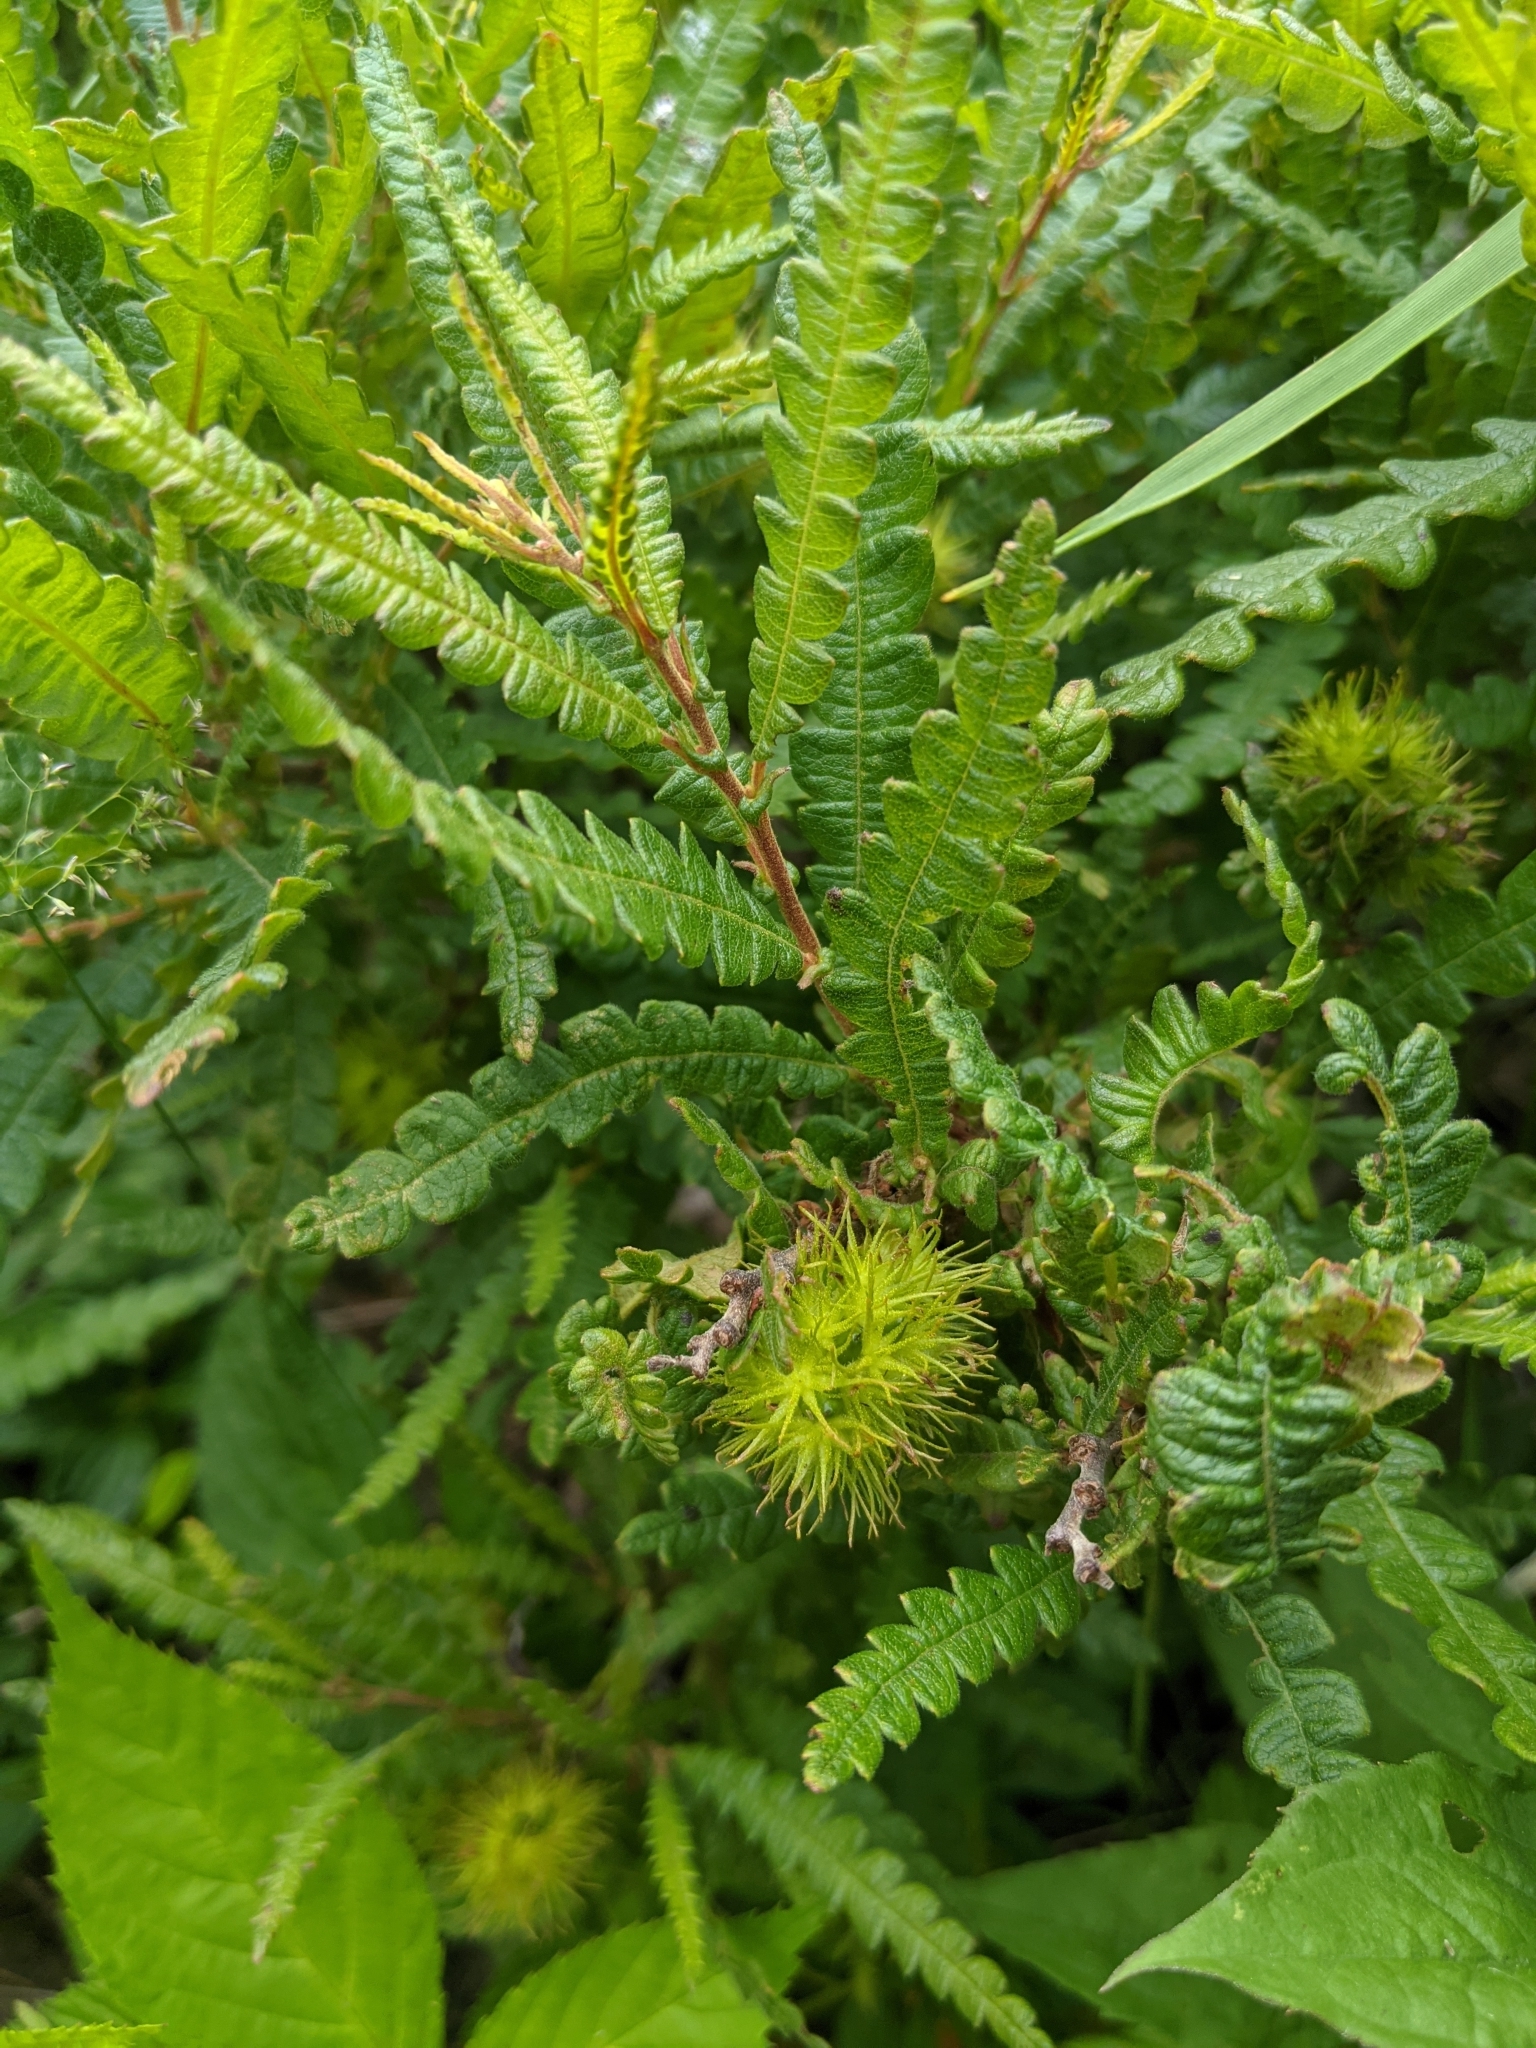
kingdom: Plantae
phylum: Tracheophyta
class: Magnoliopsida
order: Fagales
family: Myricaceae
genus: Comptonia
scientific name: Comptonia peregrina
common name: Sweet-fern
